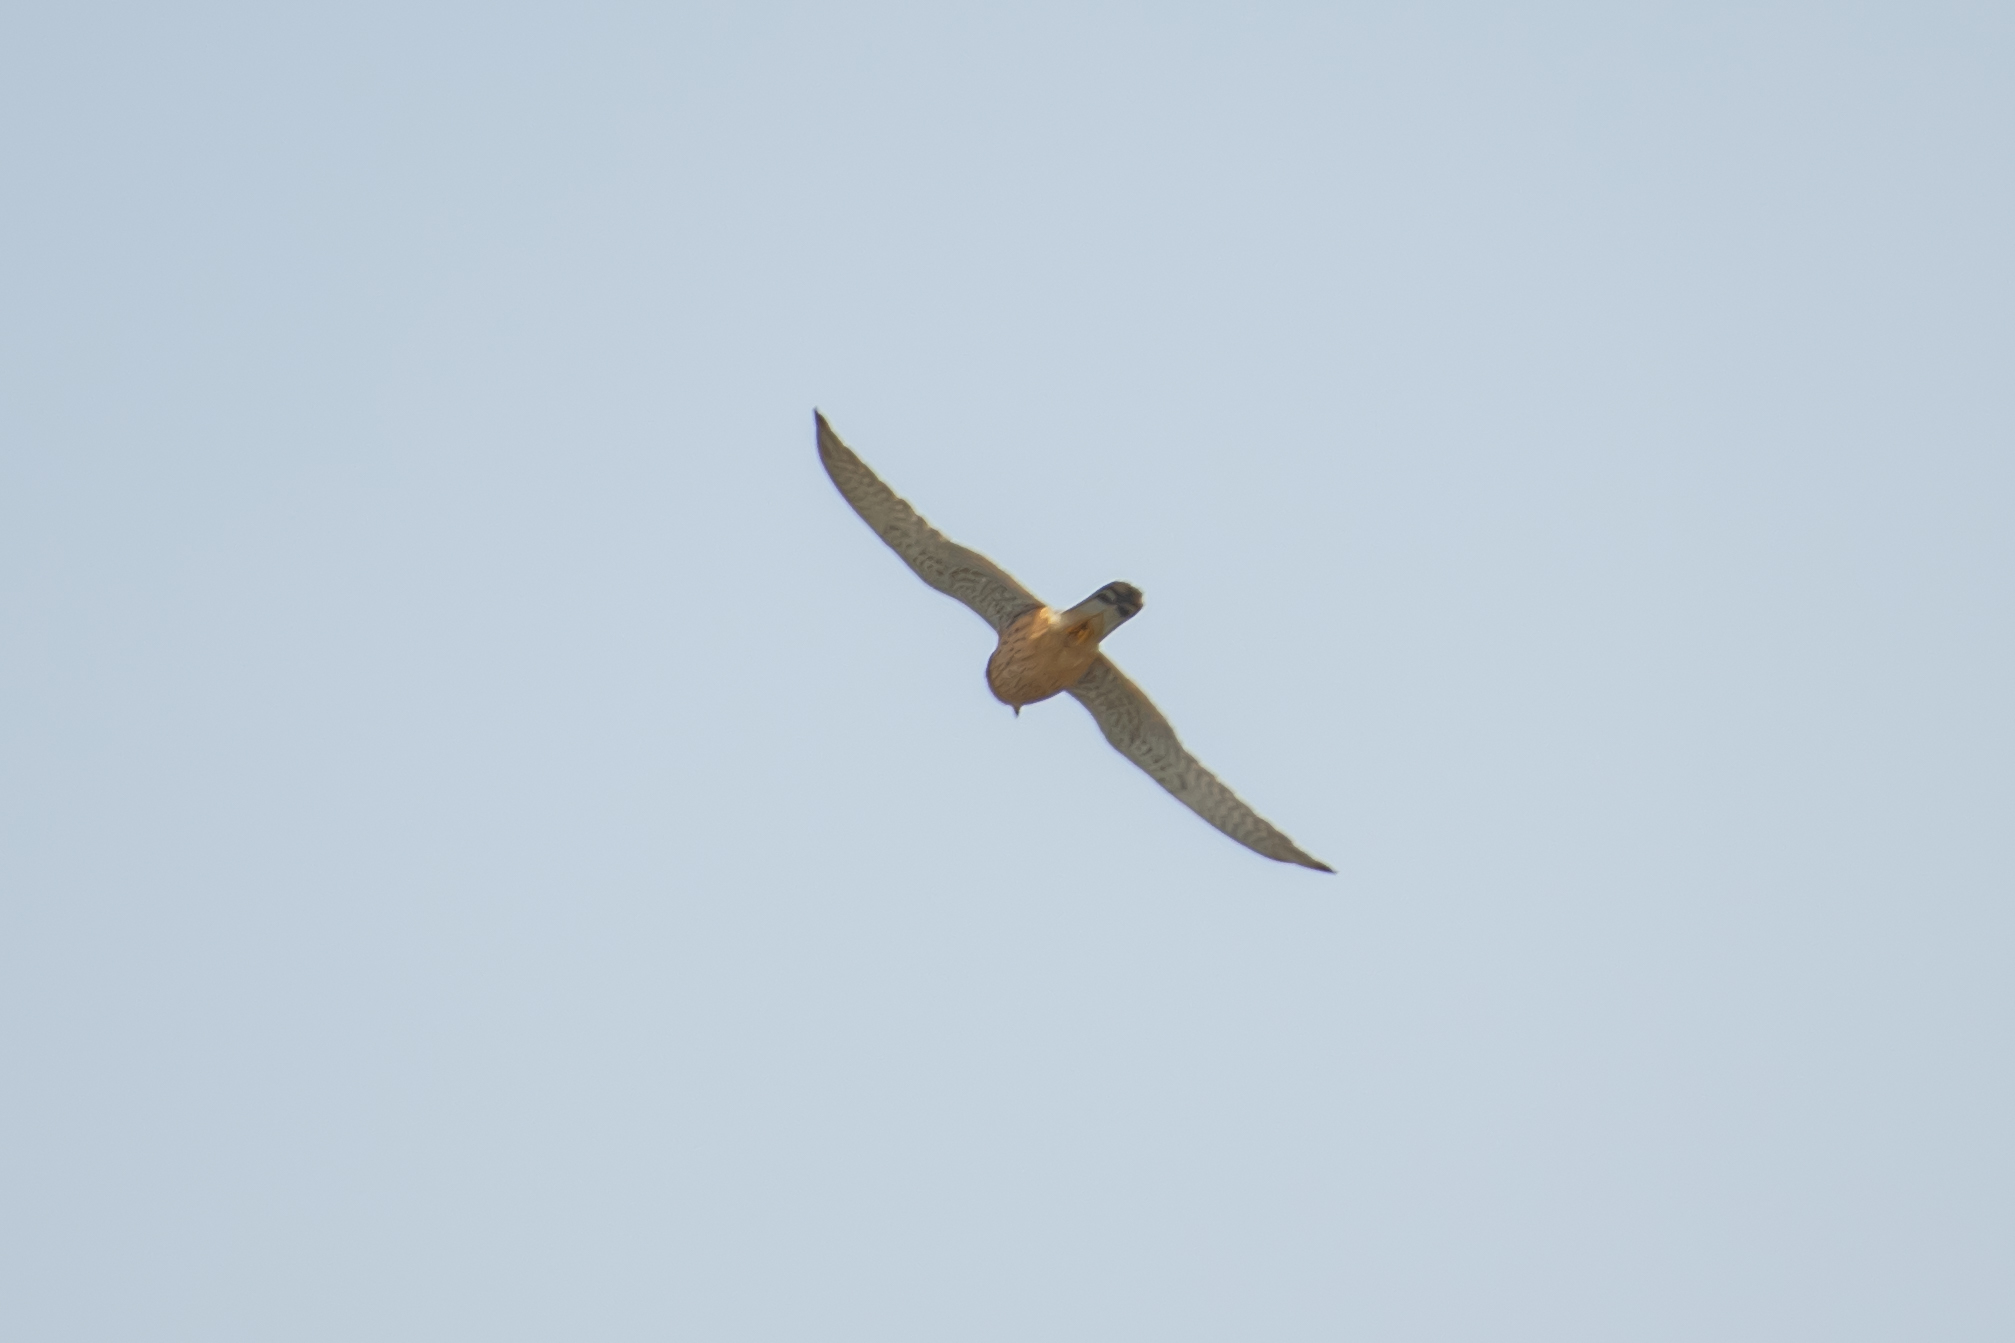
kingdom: Animalia
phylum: Chordata
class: Aves
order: Falconiformes
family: Falconidae
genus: Falco
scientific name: Falco tinnunculus
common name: Common kestrel
